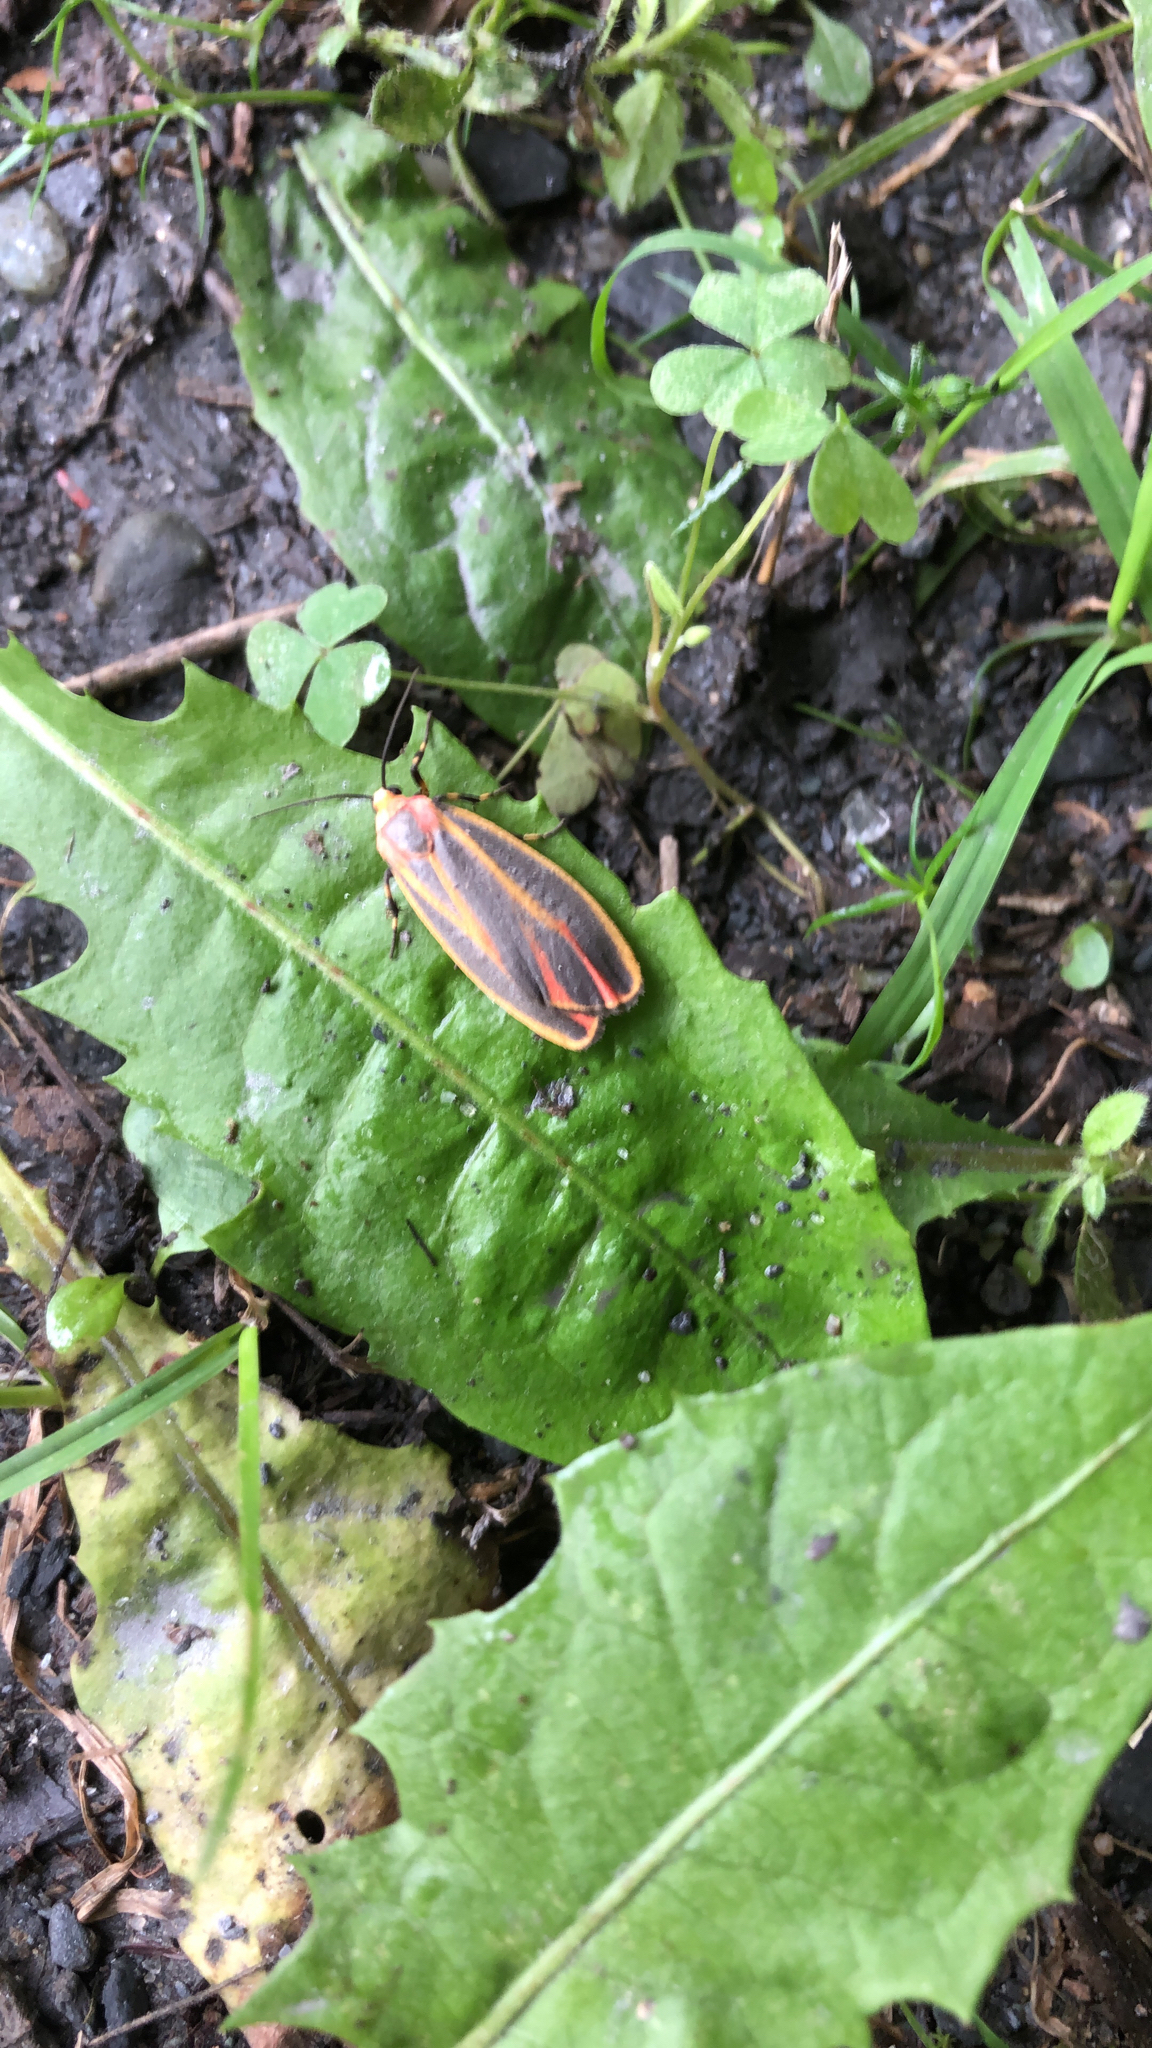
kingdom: Animalia
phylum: Arthropoda
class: Insecta
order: Lepidoptera
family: Erebidae
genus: Hypoprepia
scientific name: Hypoprepia fucosa
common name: Painted lichen moth
